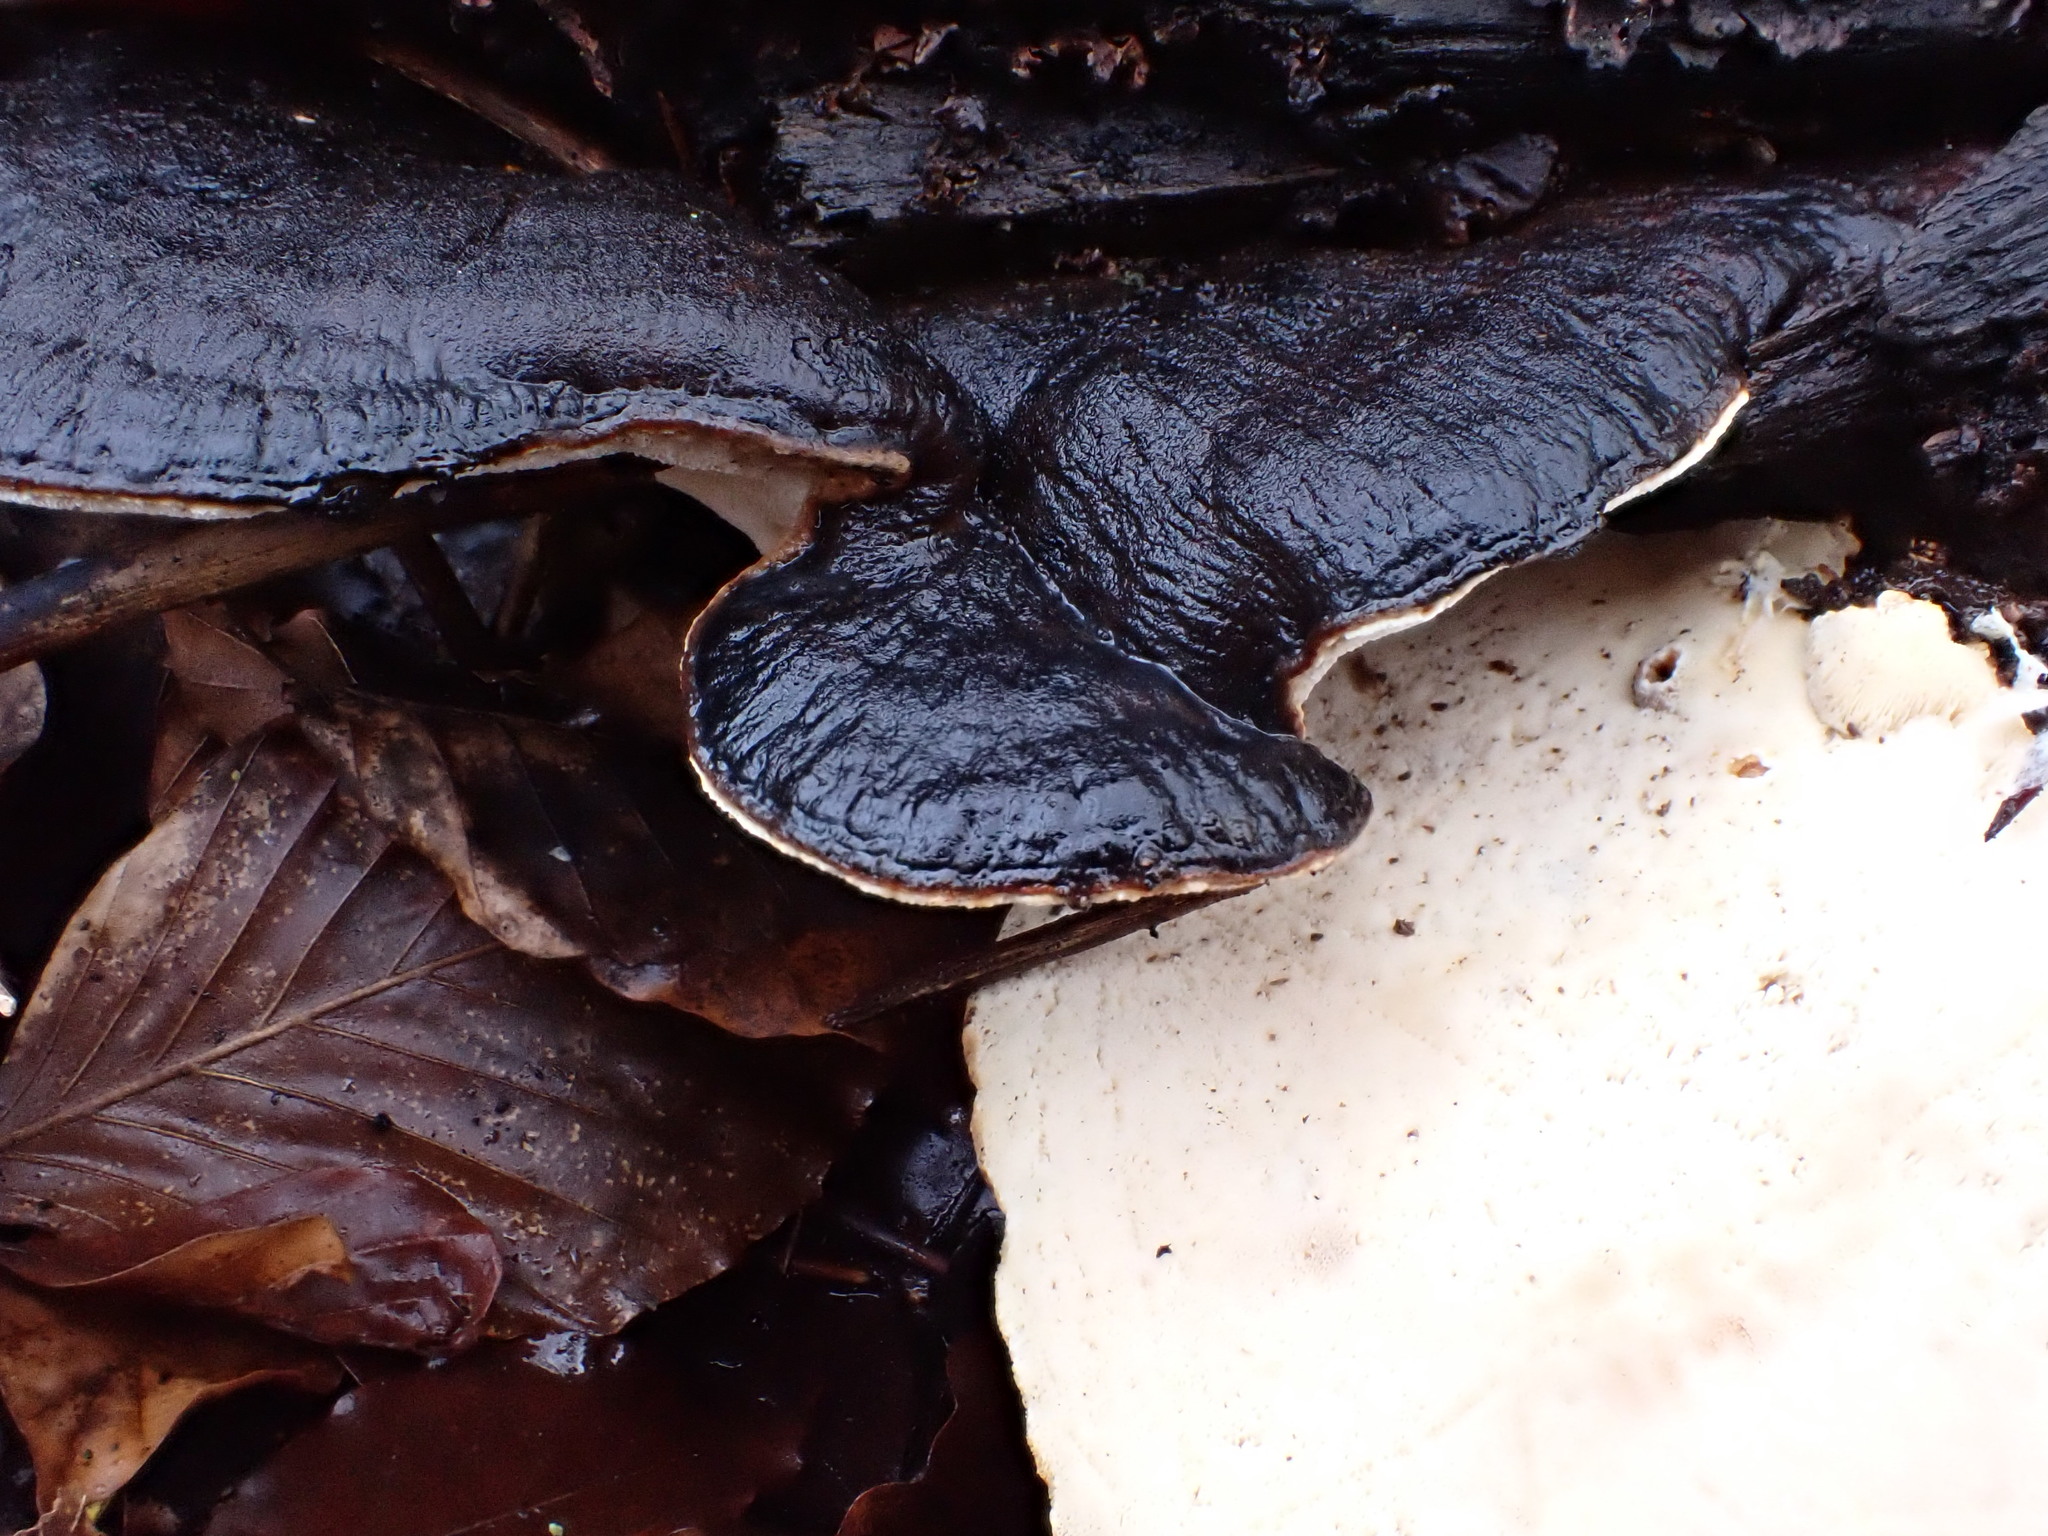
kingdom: Fungi
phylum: Basidiomycota
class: Agaricomycetes
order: Polyporales
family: Ischnodermataceae
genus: Ischnoderma
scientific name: Ischnoderma benzoinum
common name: Benzoin bracket
